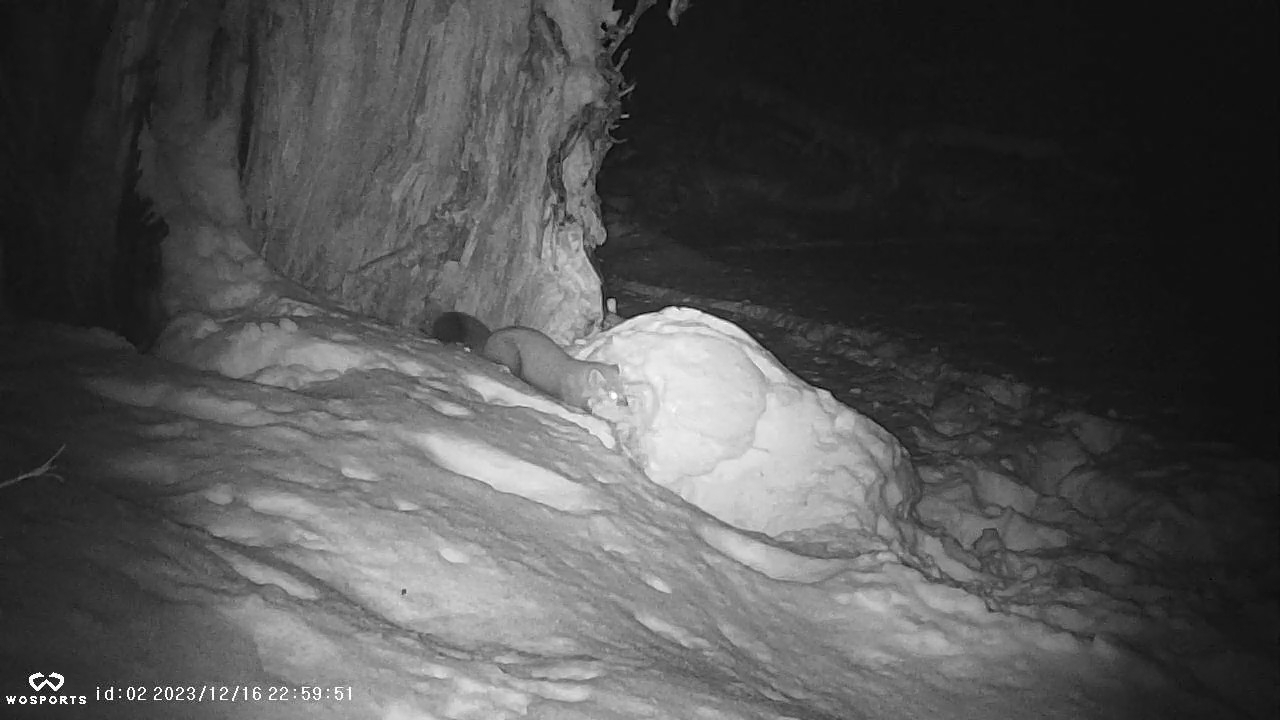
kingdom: Animalia
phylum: Chordata
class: Mammalia
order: Carnivora
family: Mustelidae
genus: Martes
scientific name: Martes americana
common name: American marten
